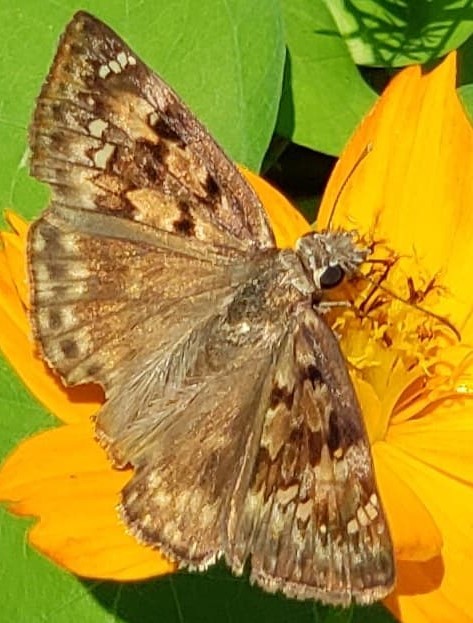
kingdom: Animalia
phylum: Arthropoda
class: Insecta
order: Lepidoptera
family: Hesperiidae
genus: Erynnis
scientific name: Erynnis horatius
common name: Horace's duskywing
